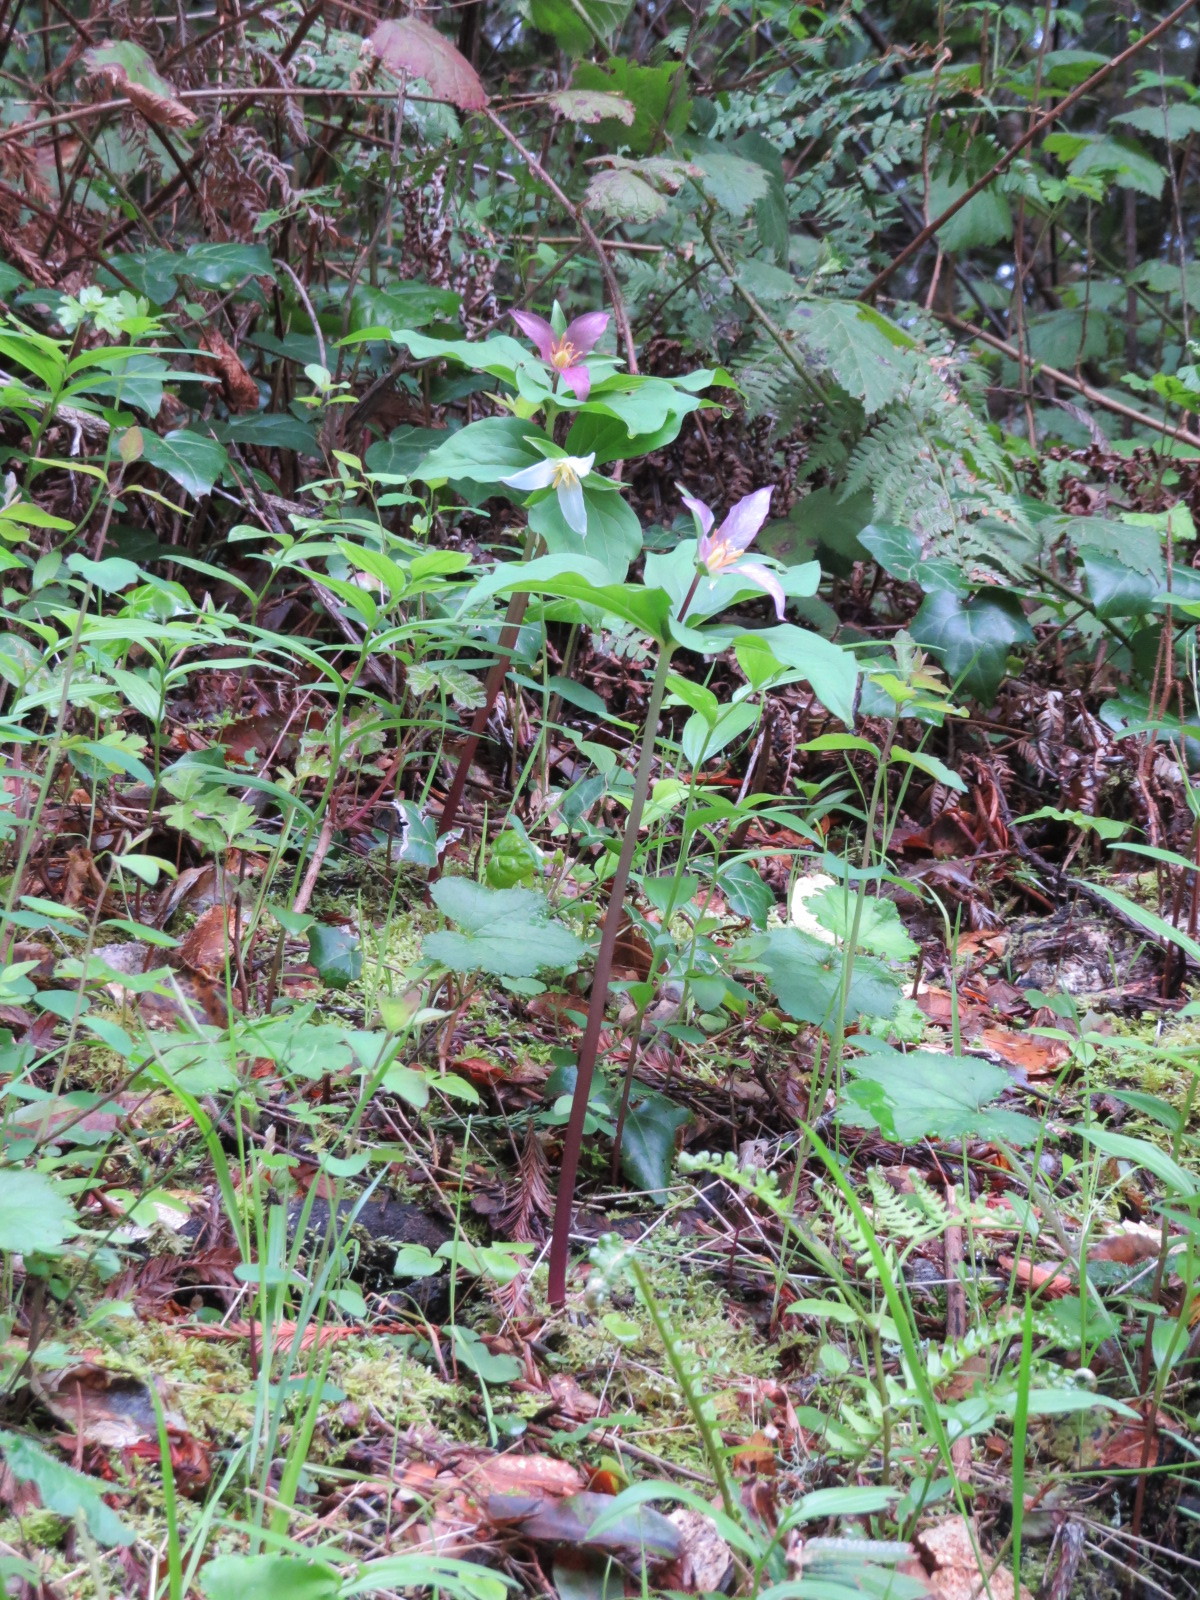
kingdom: Plantae
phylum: Tracheophyta
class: Liliopsida
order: Liliales
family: Melanthiaceae
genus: Trillium
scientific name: Trillium ovatum
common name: Pacific trillium
